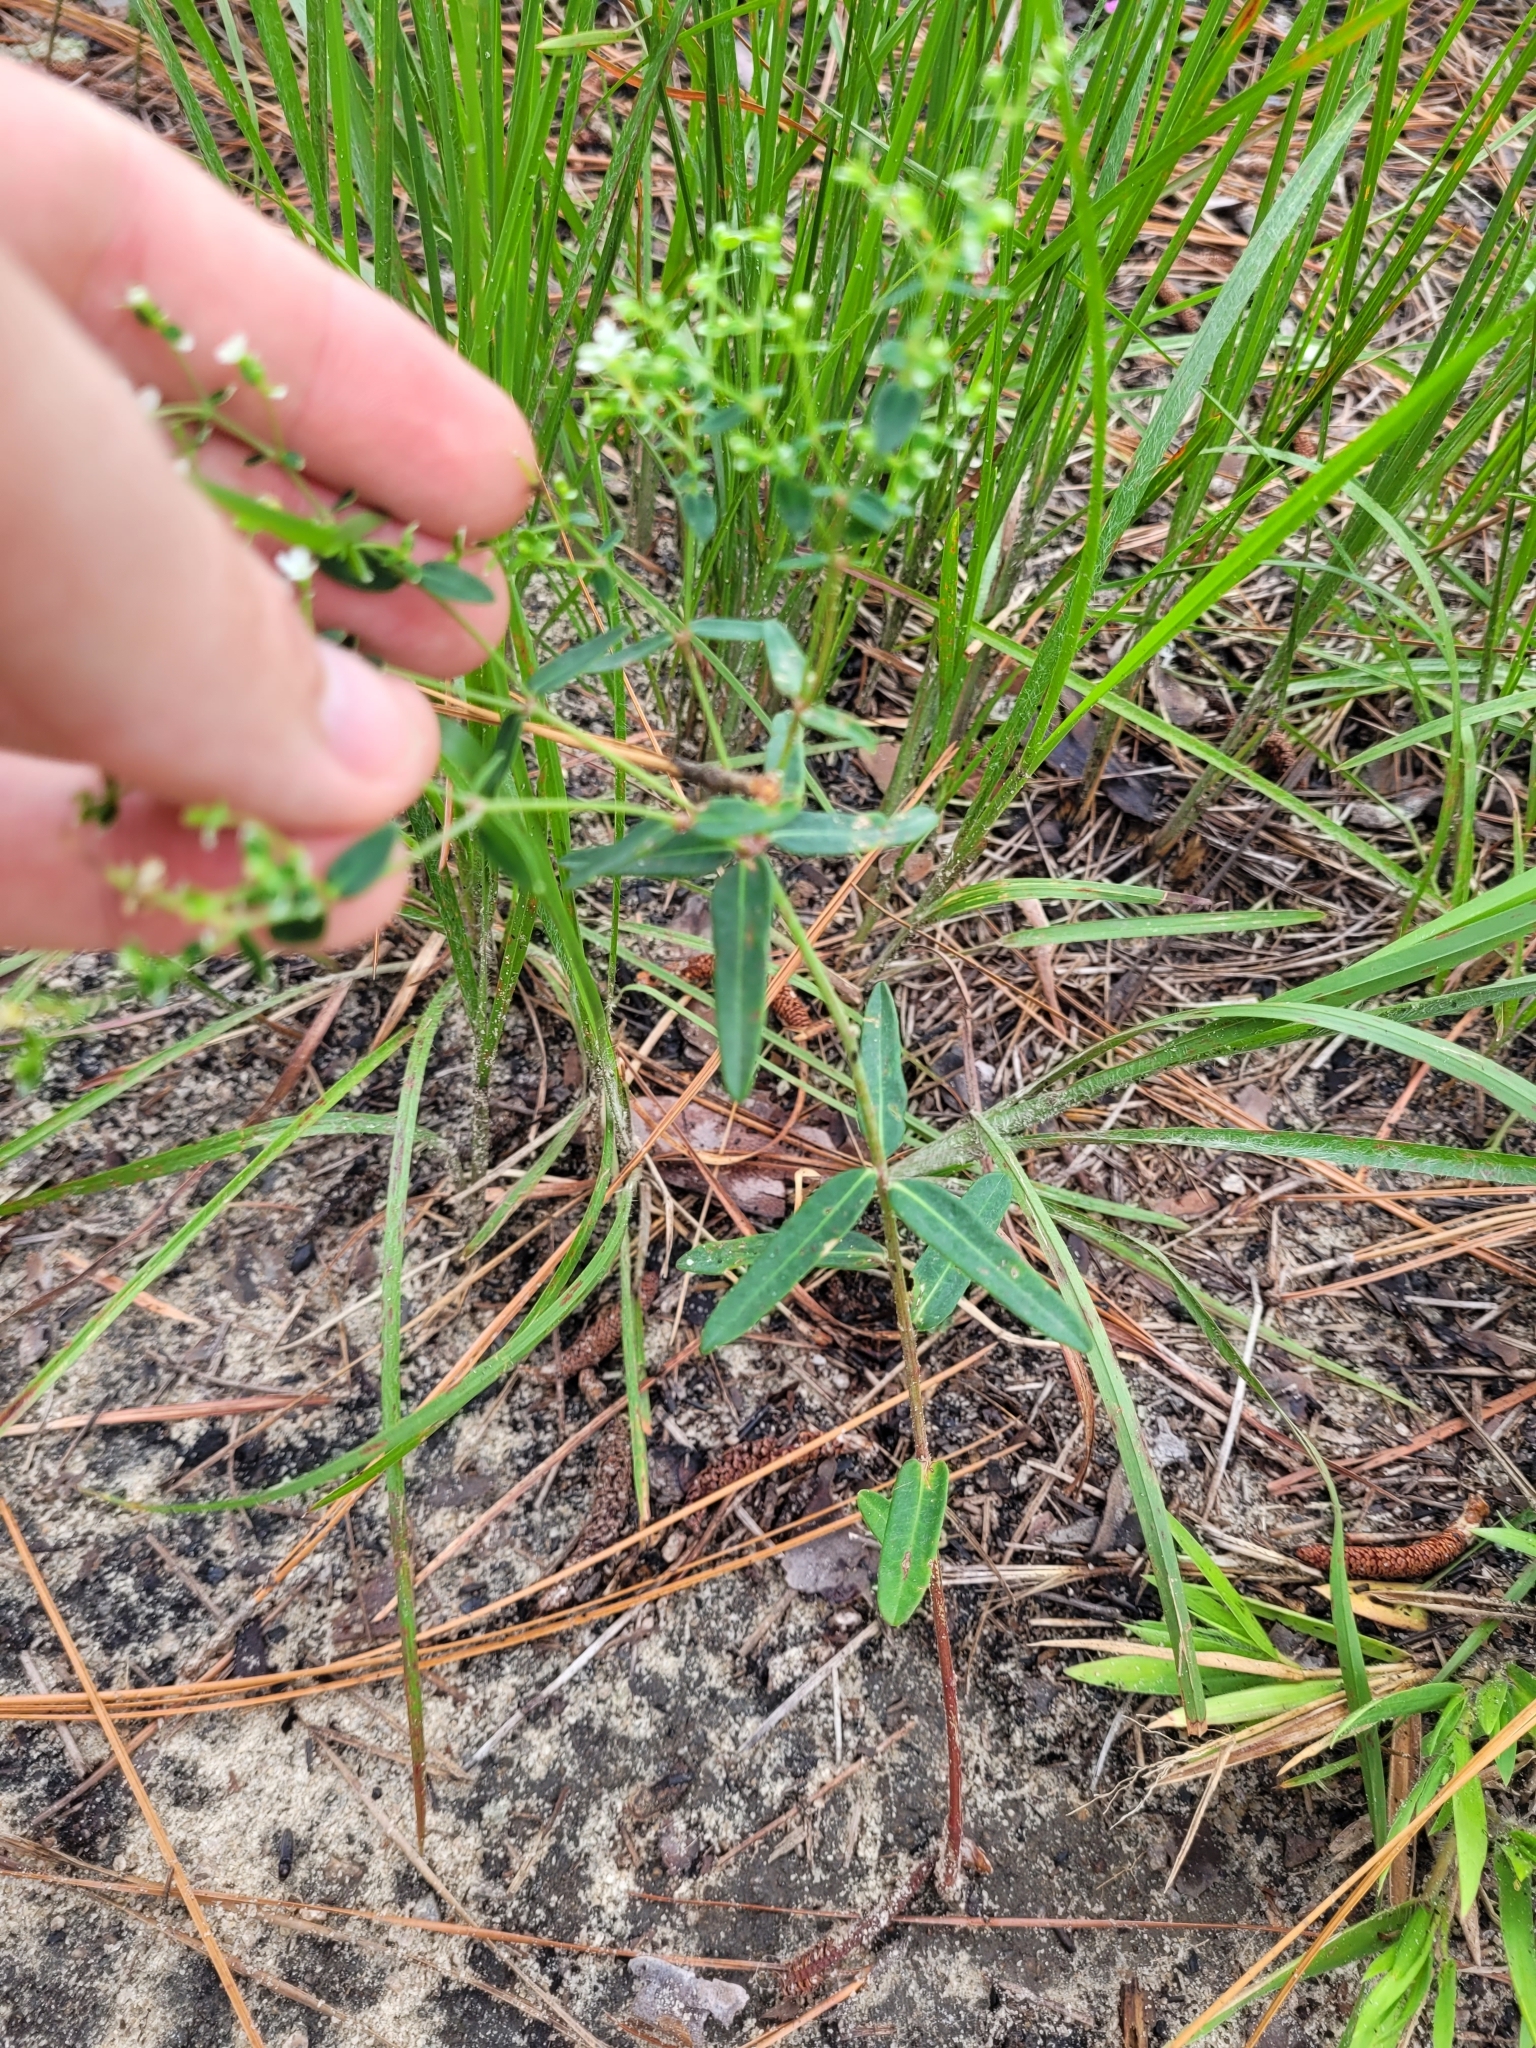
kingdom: Plantae
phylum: Tracheophyta
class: Magnoliopsida
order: Malpighiales
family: Euphorbiaceae
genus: Euphorbia
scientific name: Euphorbia corollata
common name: Flowering spurge
